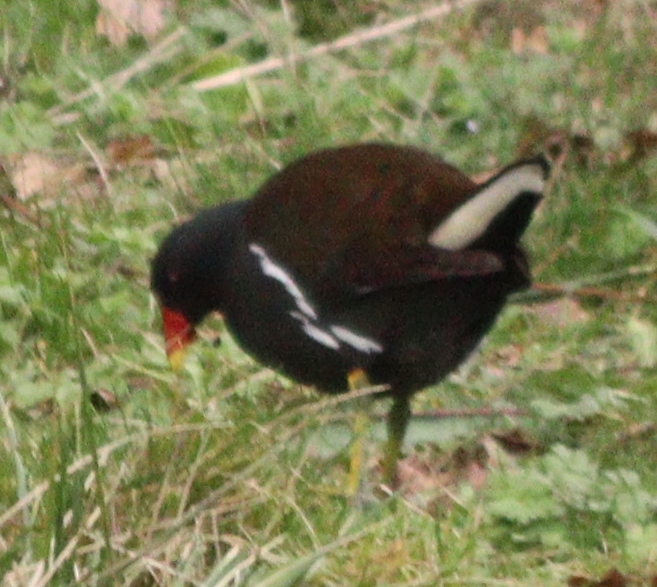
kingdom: Animalia
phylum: Chordata
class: Aves
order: Gruiformes
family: Rallidae
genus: Gallinula
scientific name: Gallinula chloropus
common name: Common moorhen
